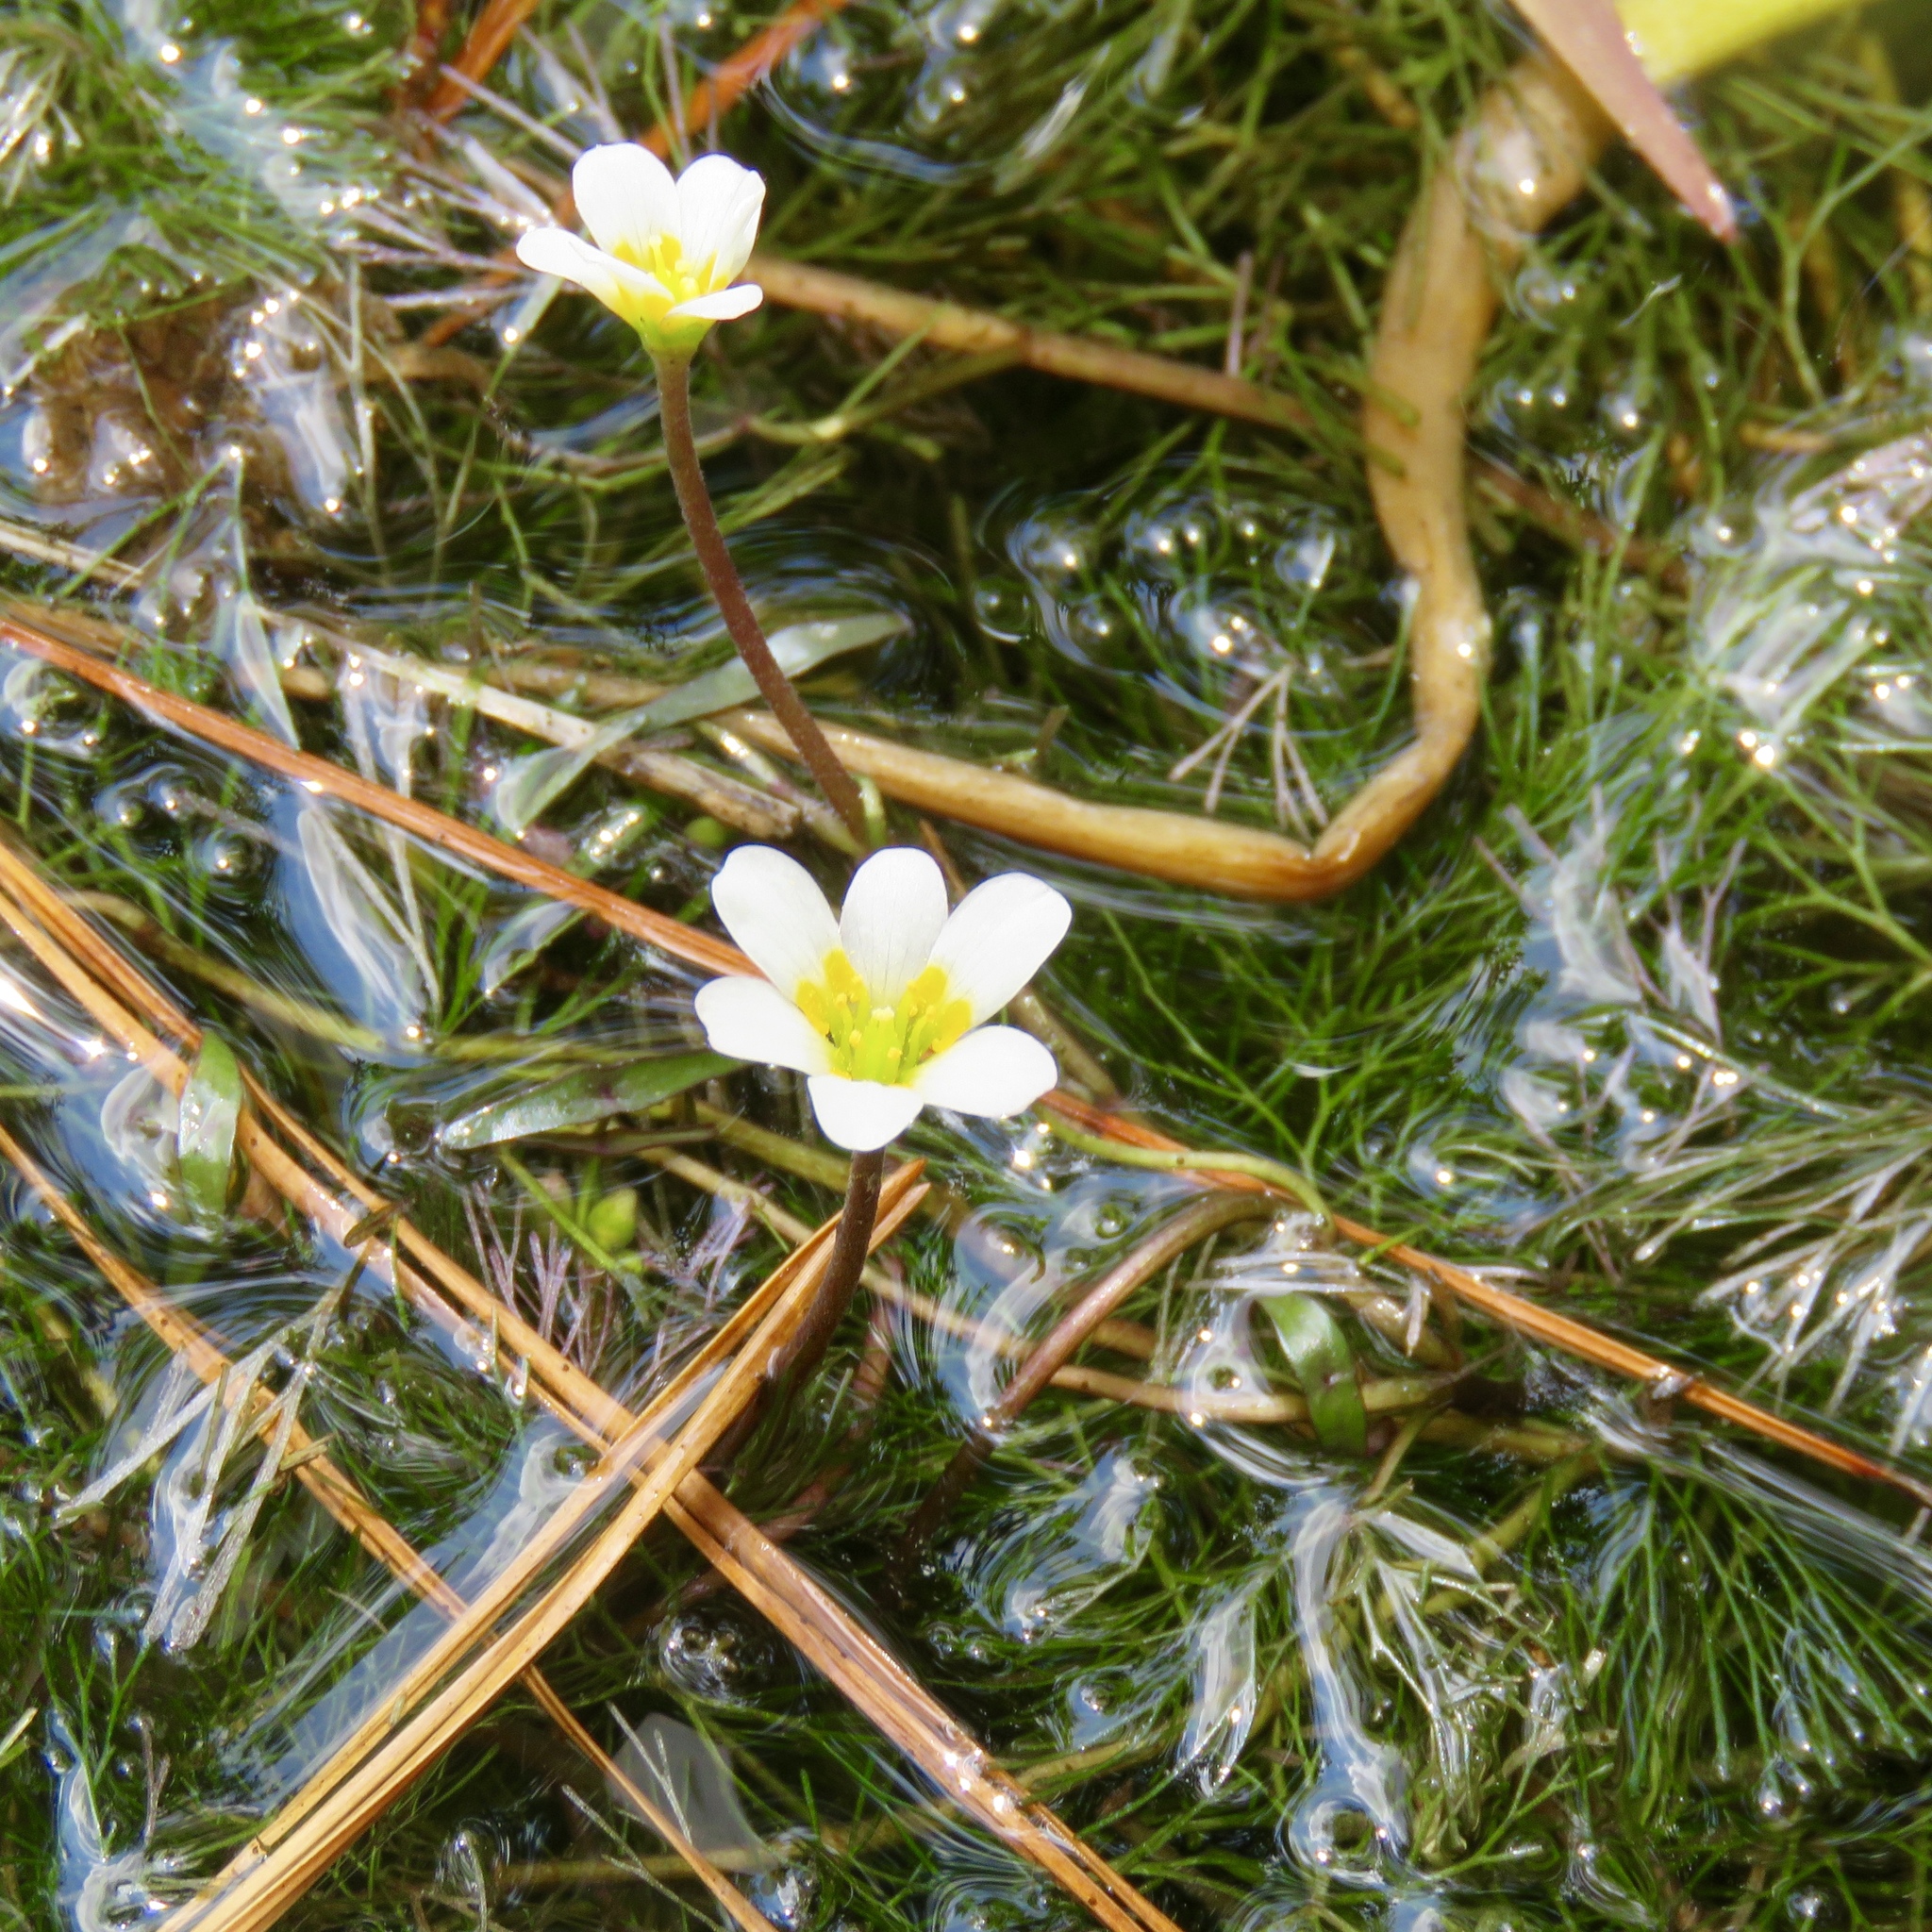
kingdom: Plantae
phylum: Tracheophyta
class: Magnoliopsida
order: Nymphaeales
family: Cabombaceae
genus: Cabomba
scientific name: Cabomba caroliniana
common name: Fanwort
